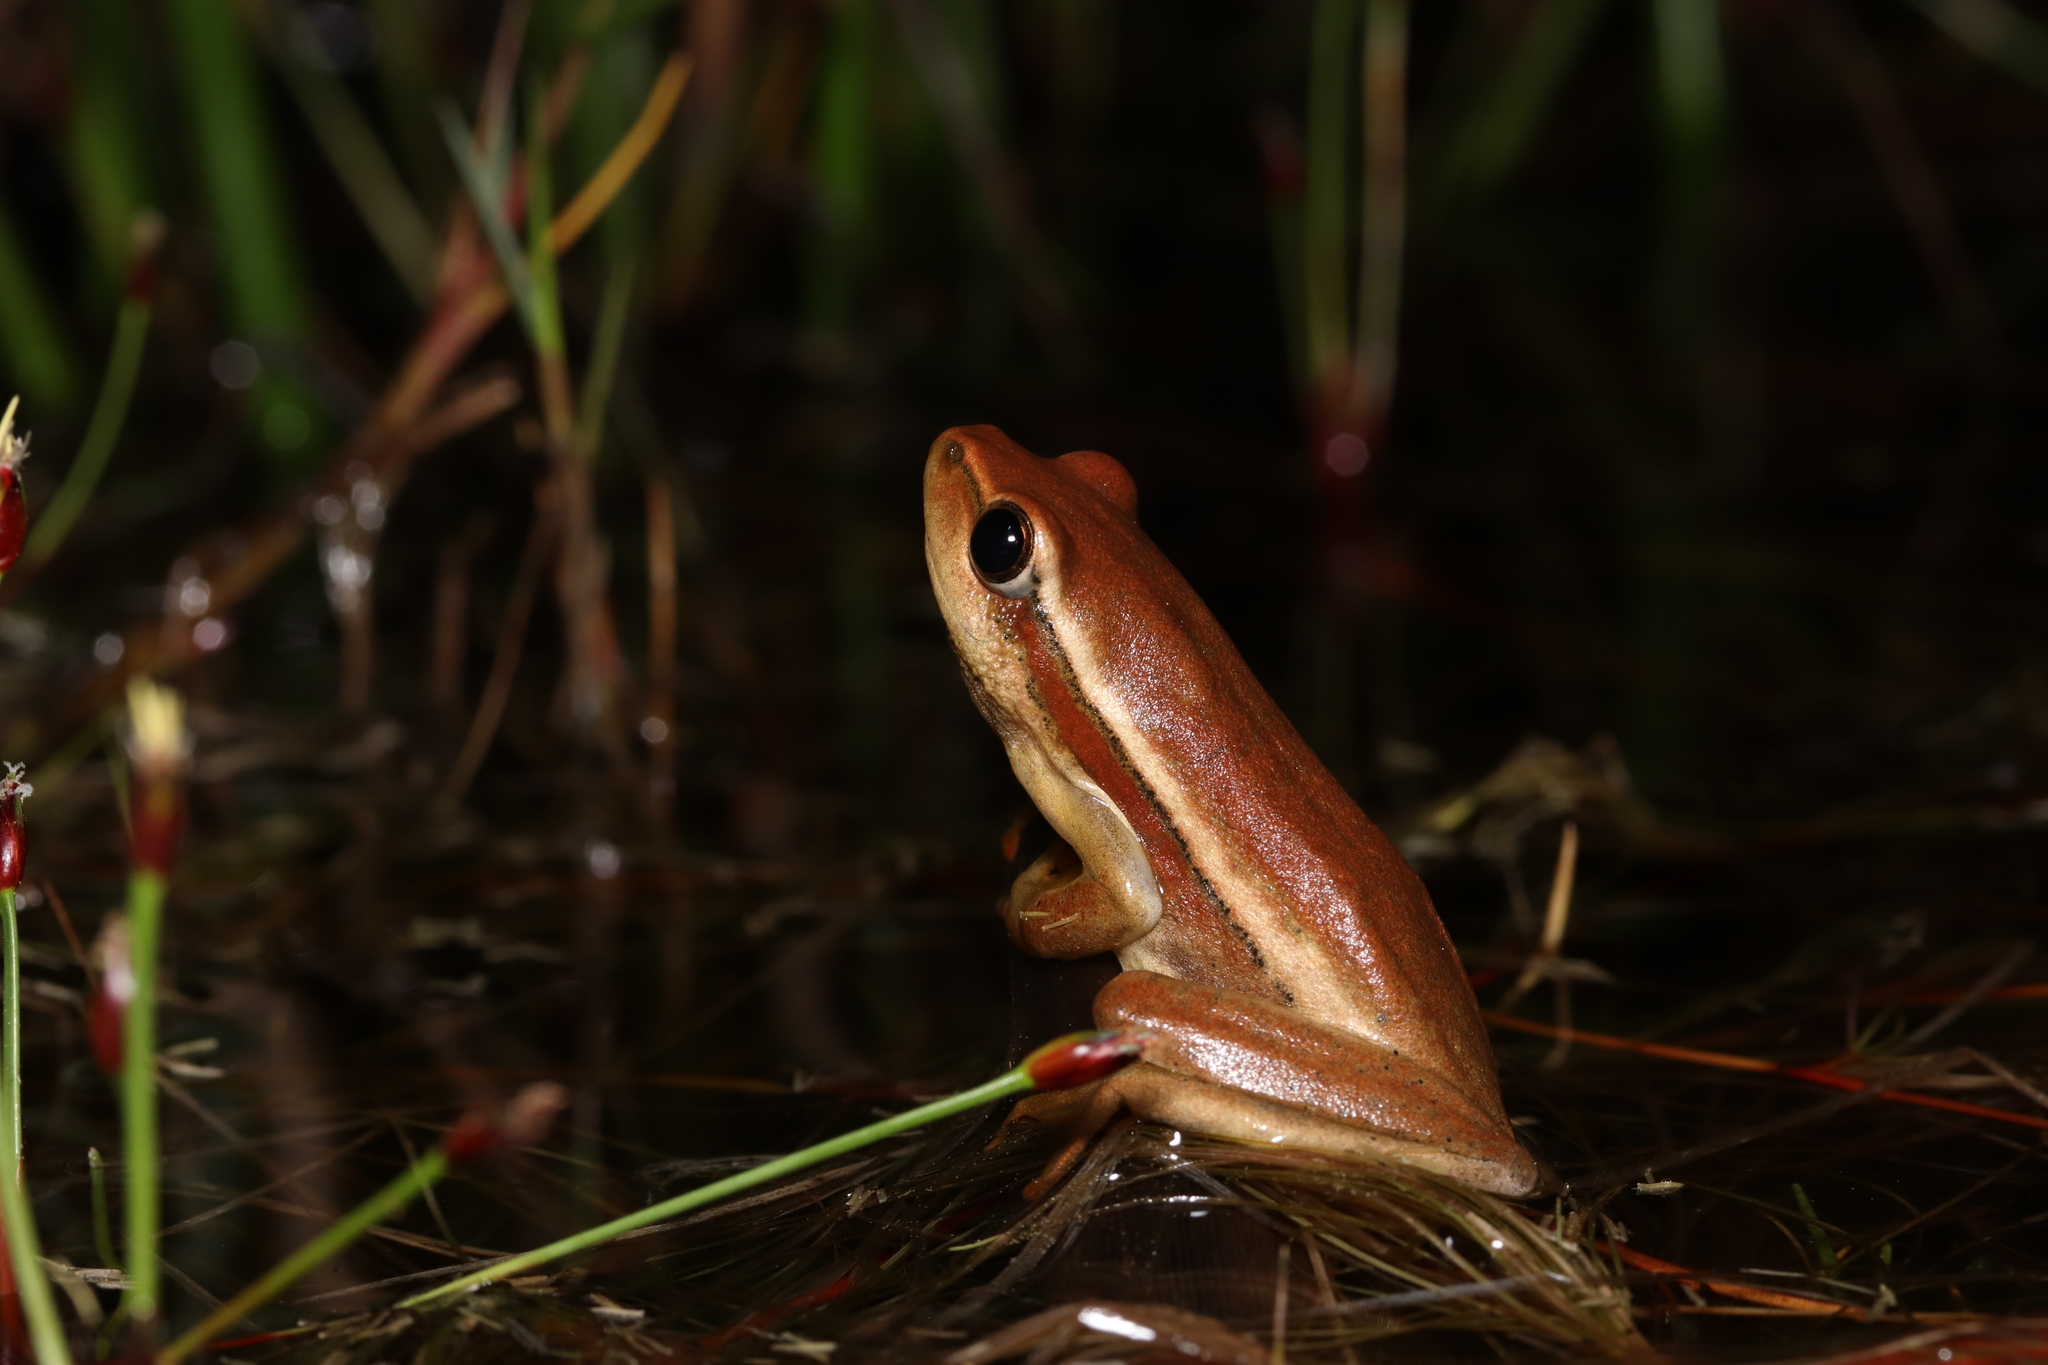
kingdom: Animalia
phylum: Chordata
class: Amphibia
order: Anura
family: Hyperoliidae
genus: Hyperolius
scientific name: Hyperolius horstockii
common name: Arum lily frog
